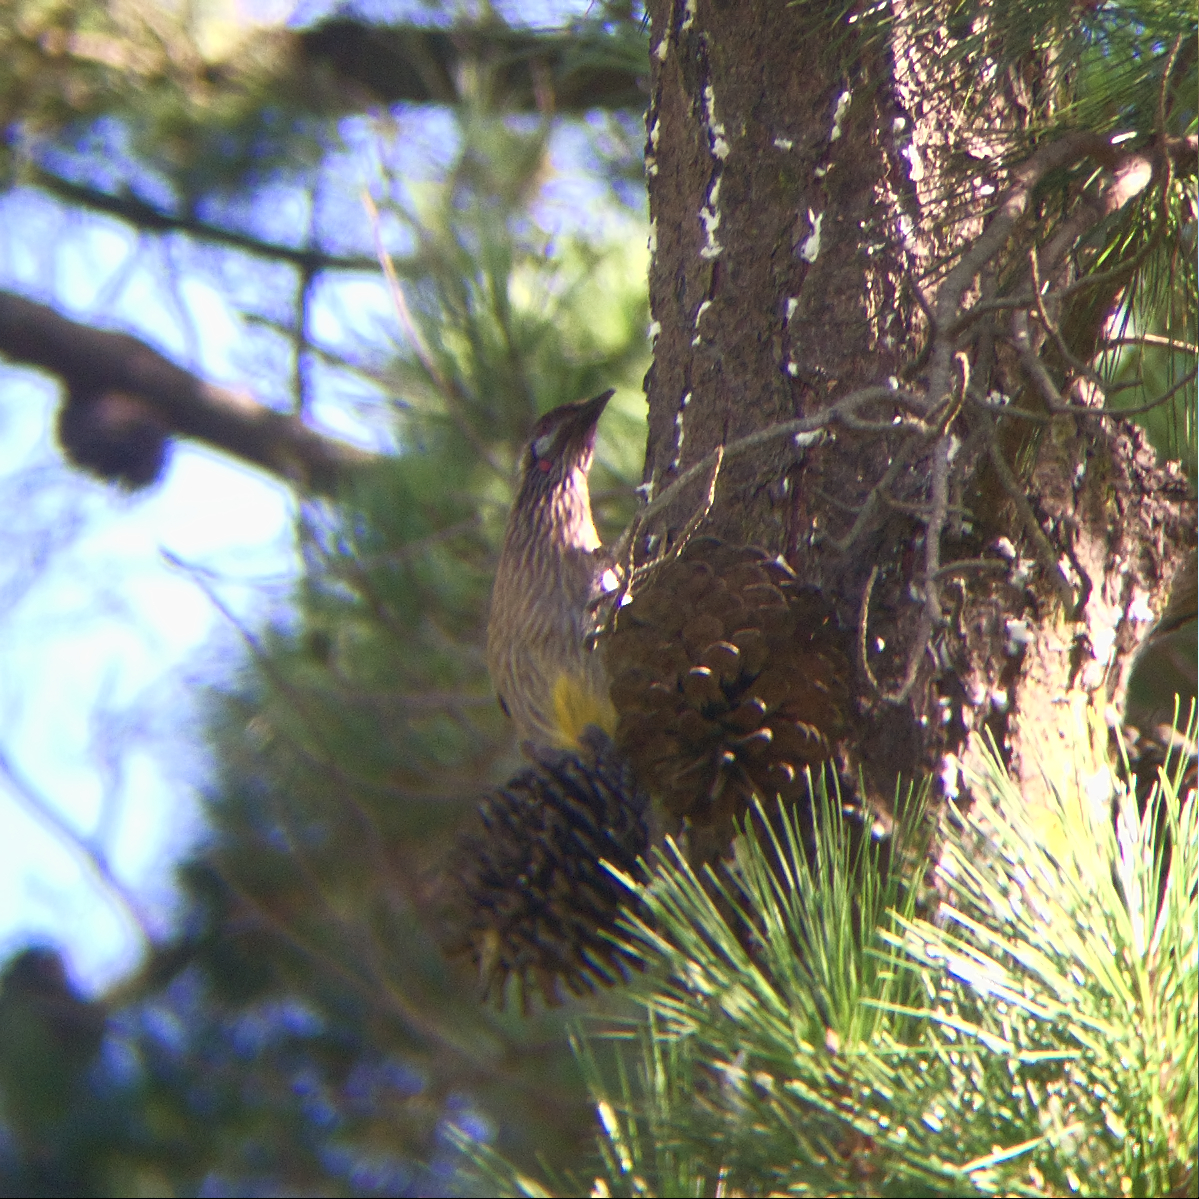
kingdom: Animalia
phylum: Chordata
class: Aves
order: Passeriformes
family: Meliphagidae
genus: Anthochaera
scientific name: Anthochaera carunculata
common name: Red wattlebird
